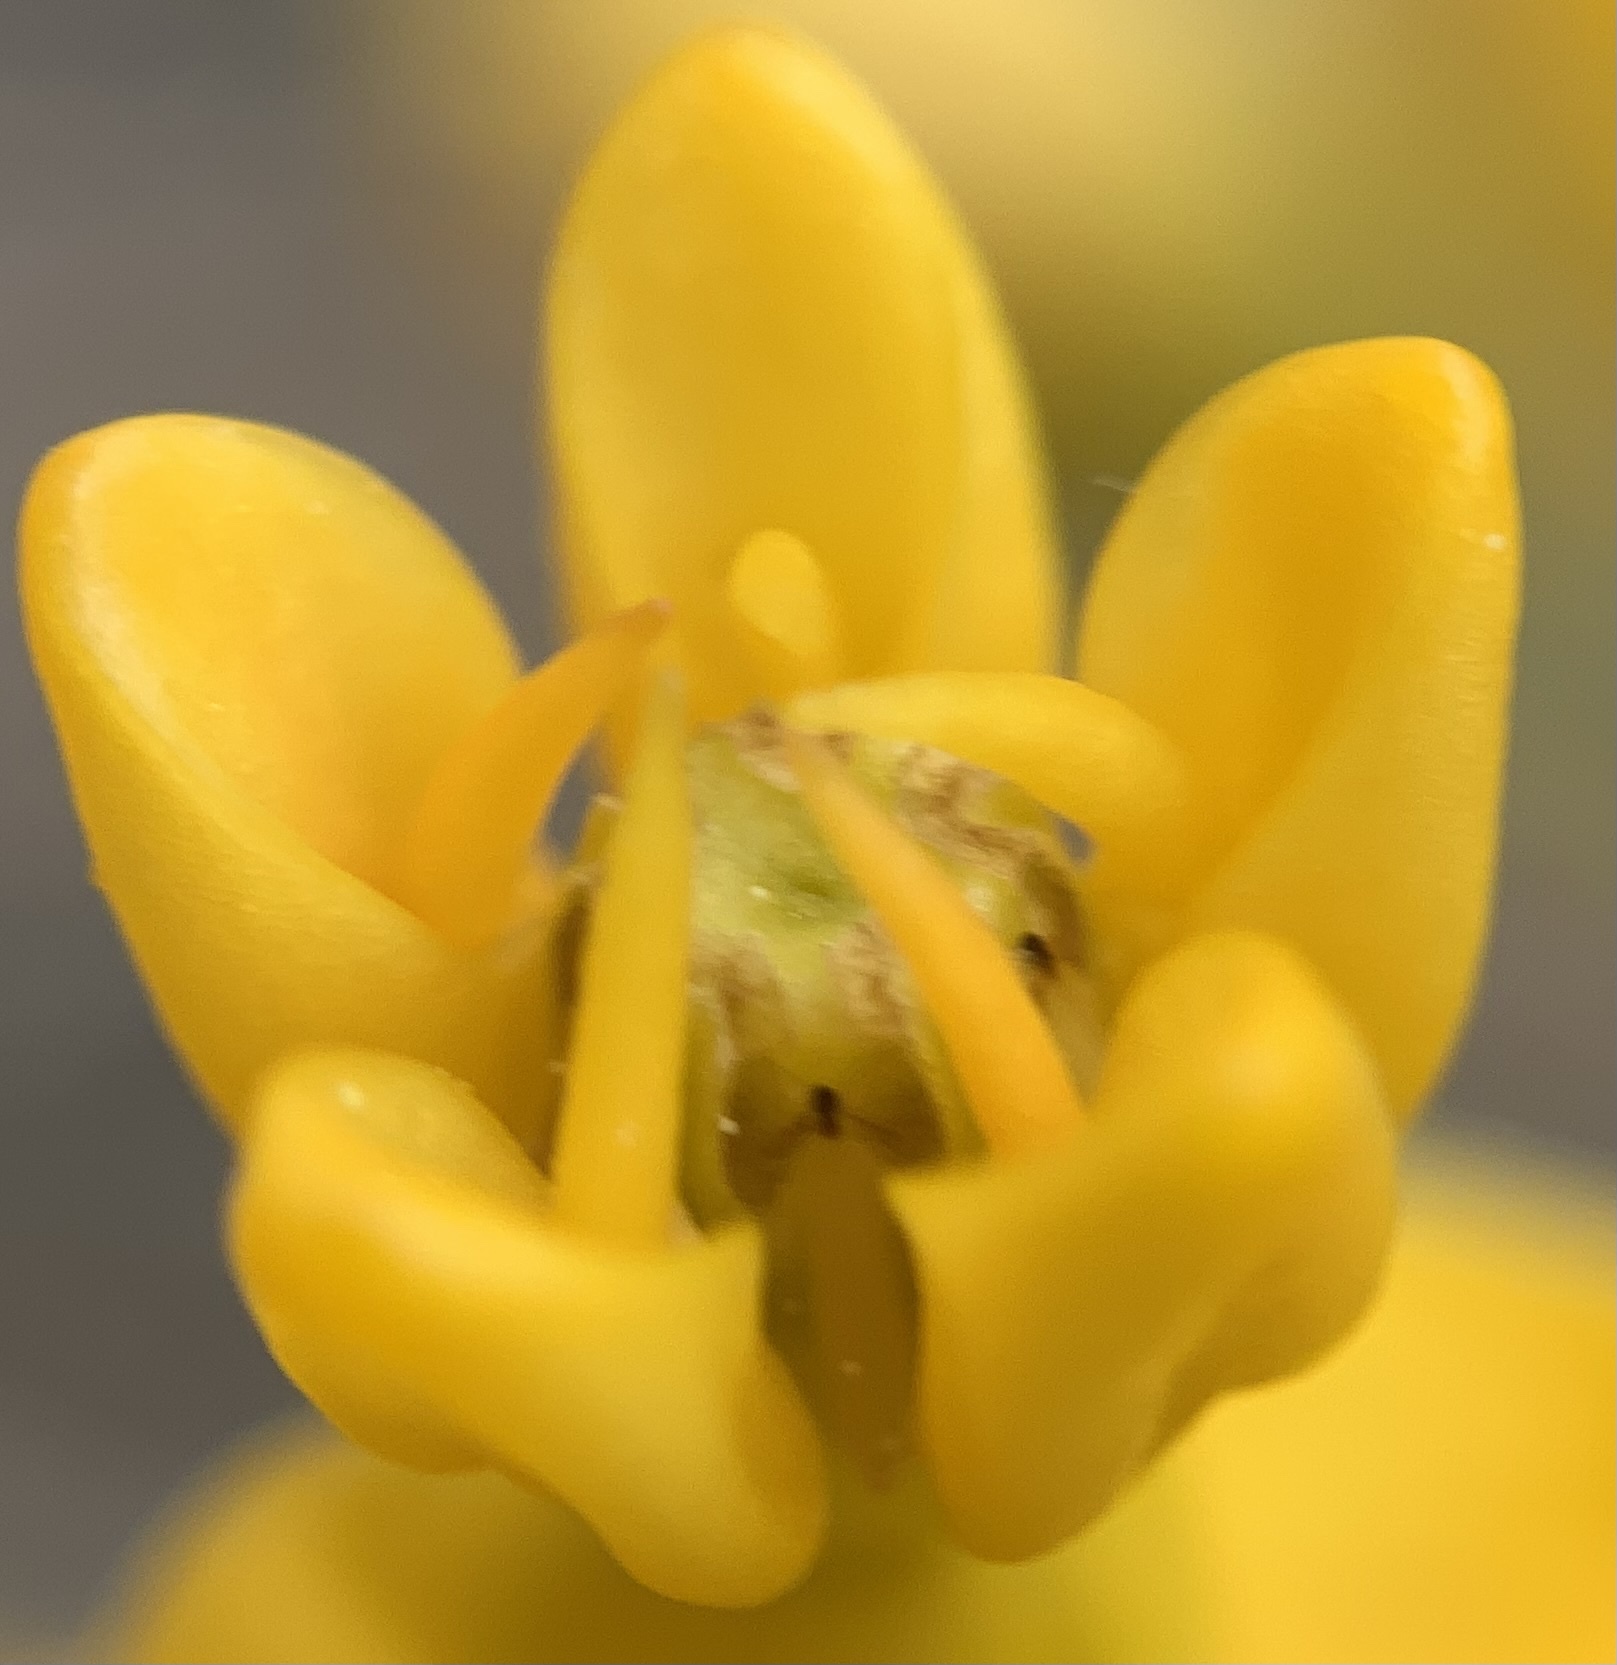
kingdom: Plantae
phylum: Tracheophyta
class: Magnoliopsida
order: Gentianales
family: Apocynaceae
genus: Asclepias
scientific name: Asclepias tuberosa
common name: Butterfly milkweed
